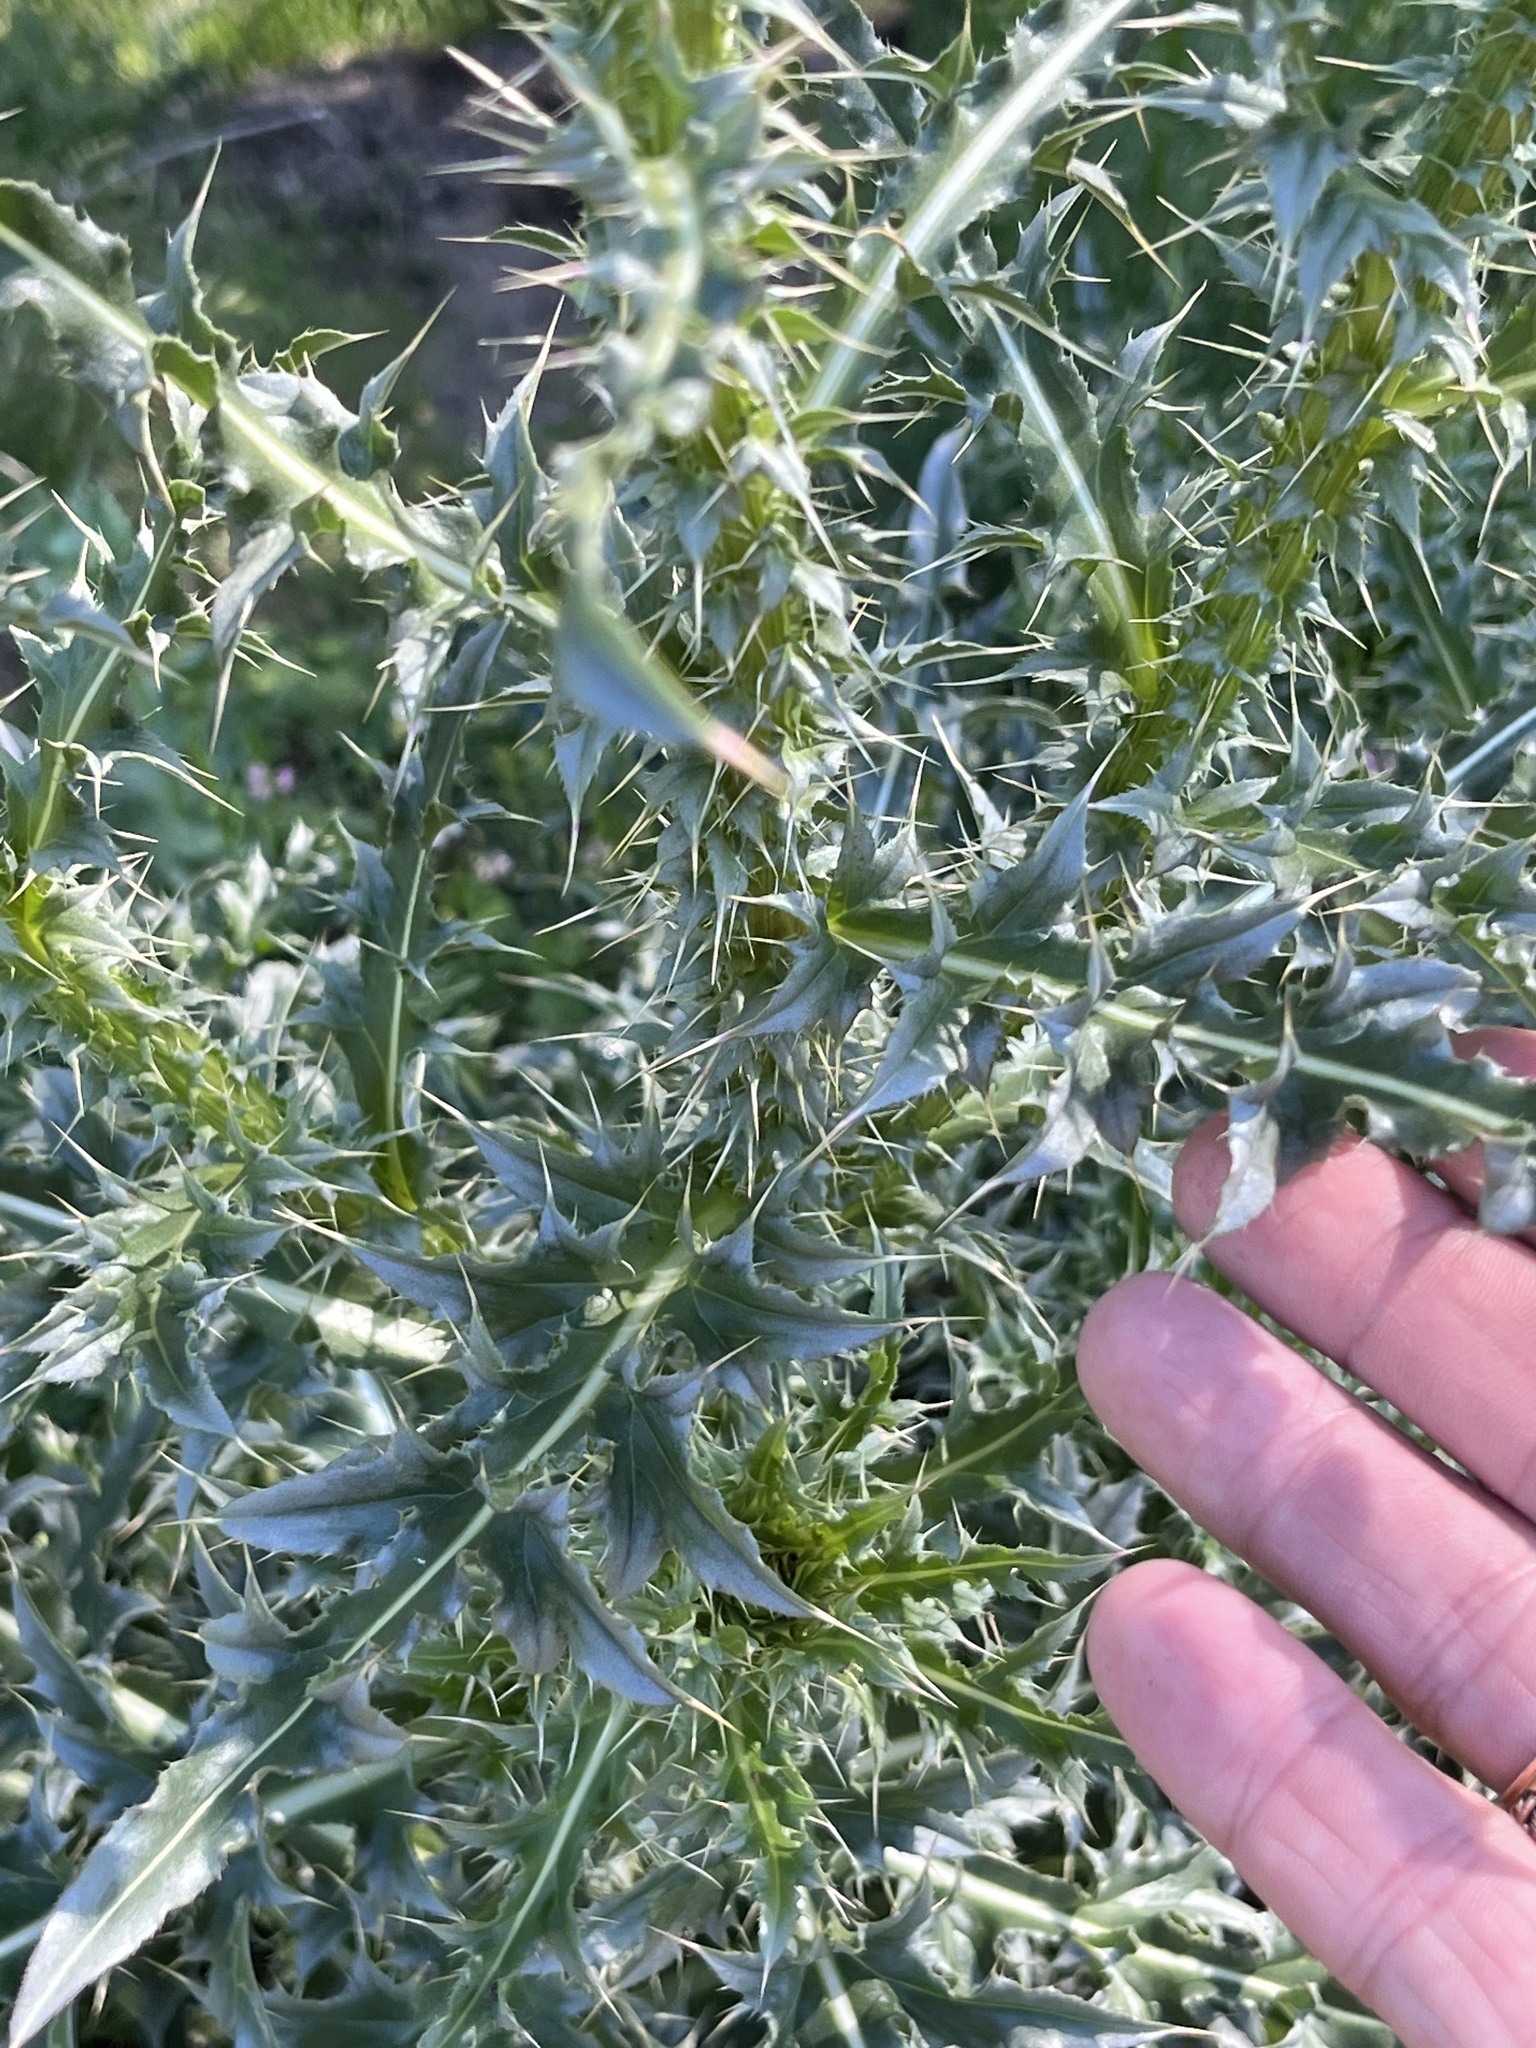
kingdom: Plantae
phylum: Tracheophyta
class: Magnoliopsida
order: Asterales
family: Asteraceae
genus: Carduus
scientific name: Carduus nutans
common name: Musk thistle
